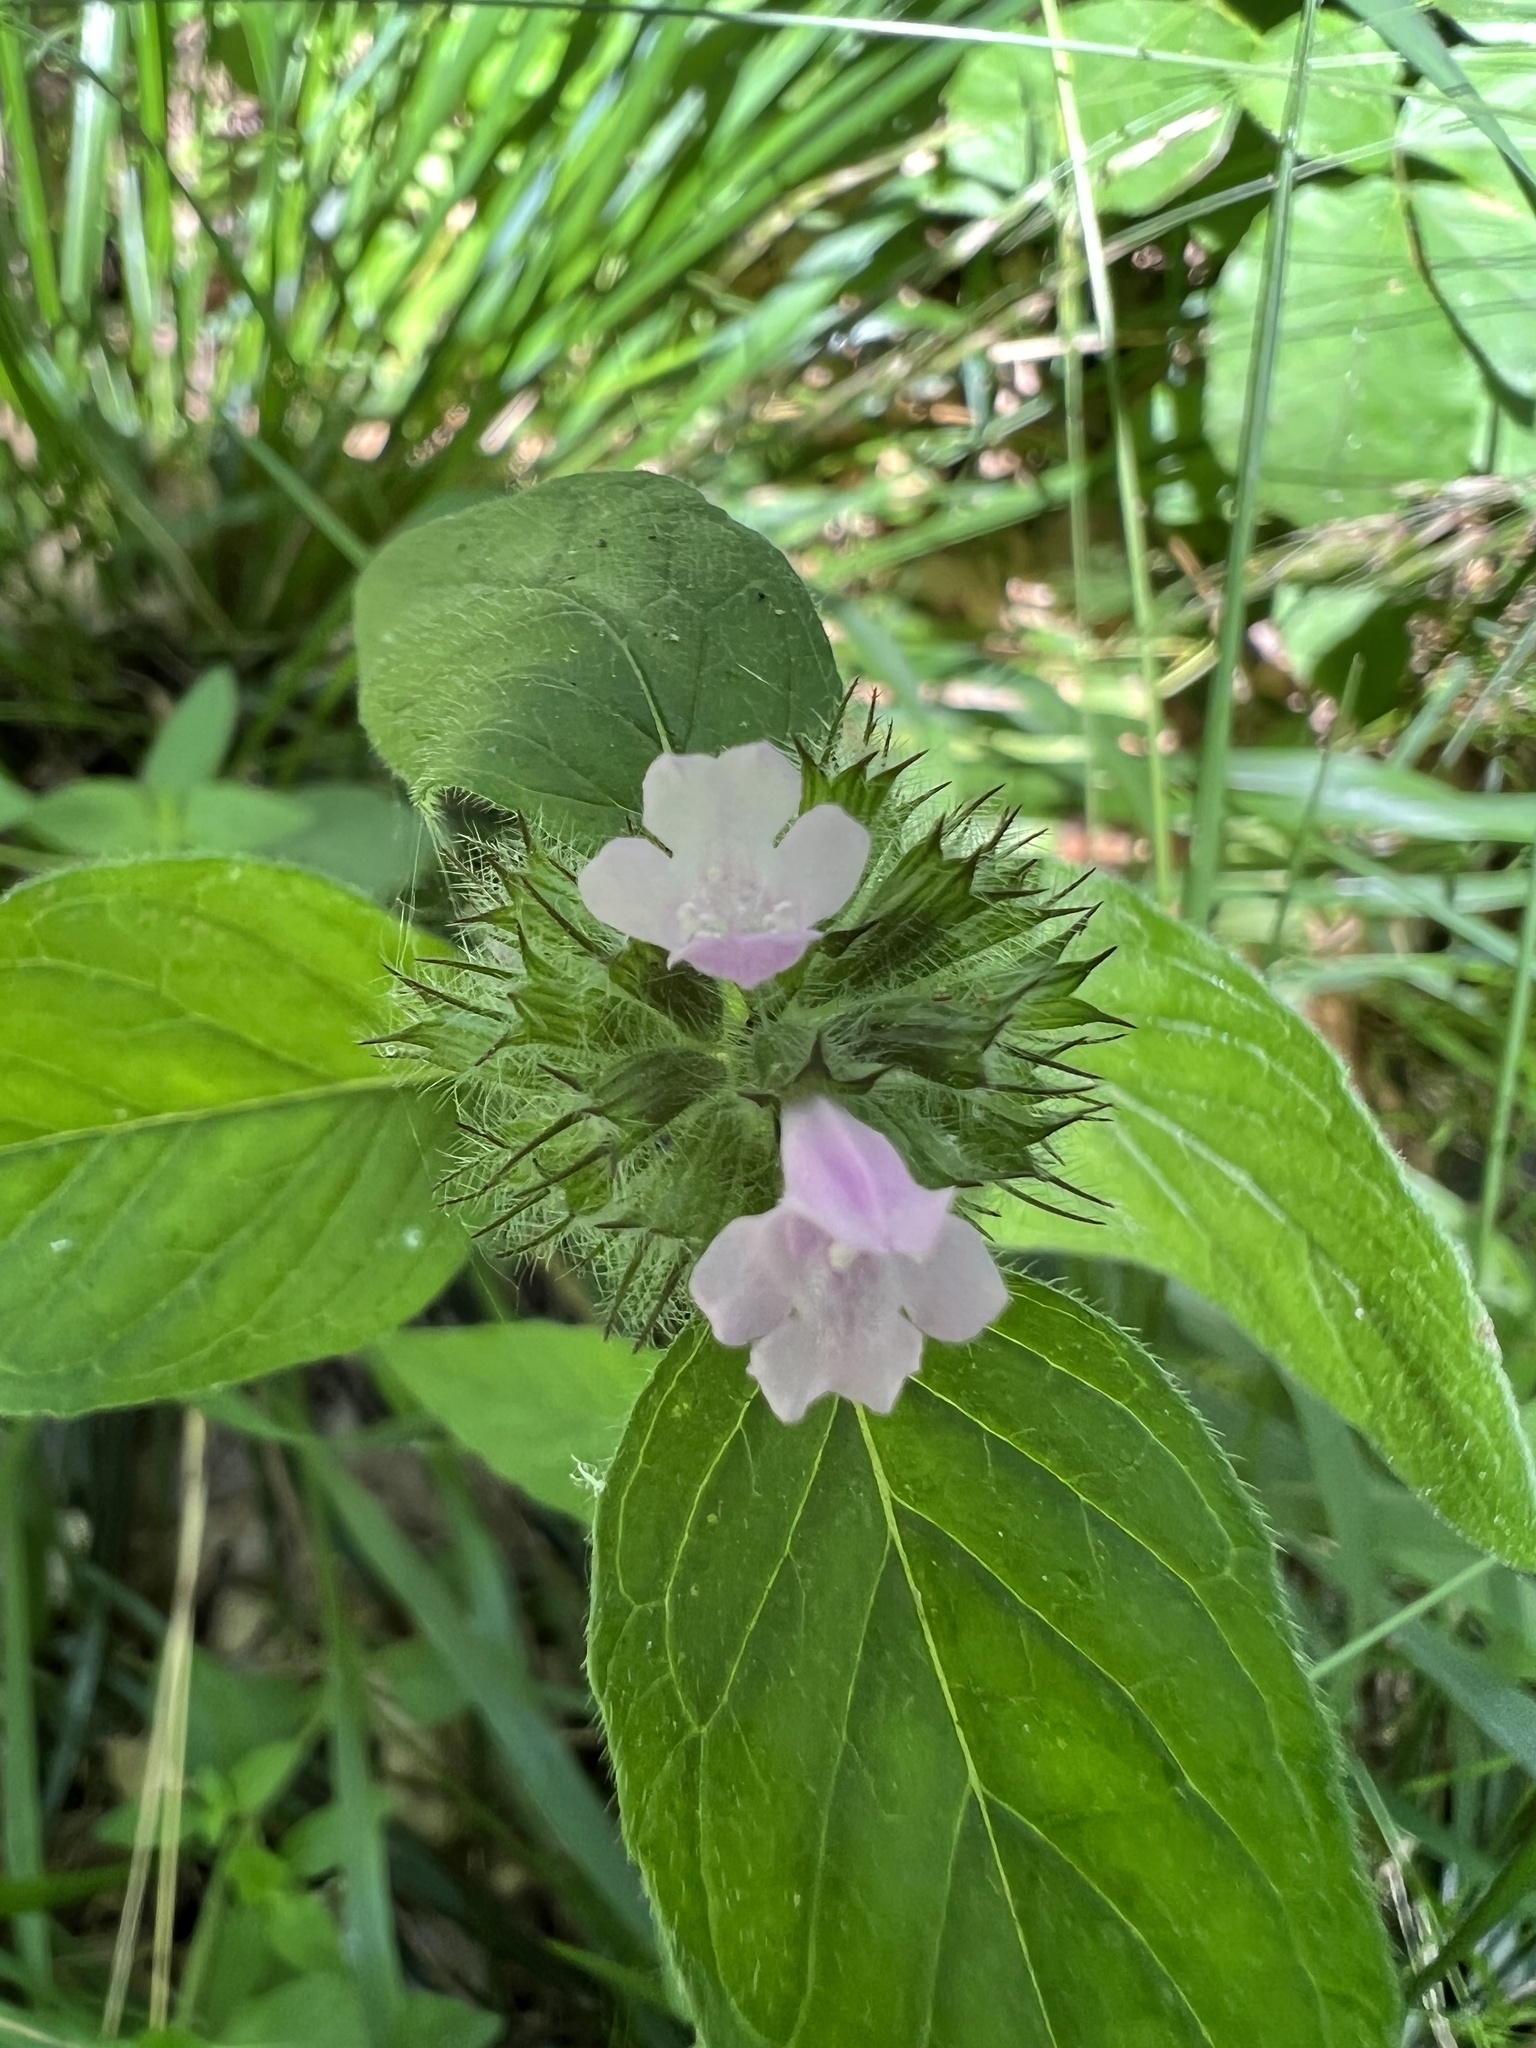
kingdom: Plantae
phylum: Tracheophyta
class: Magnoliopsida
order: Lamiales
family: Lamiaceae
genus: Clinopodium
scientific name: Clinopodium vulgare
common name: Wild basil
